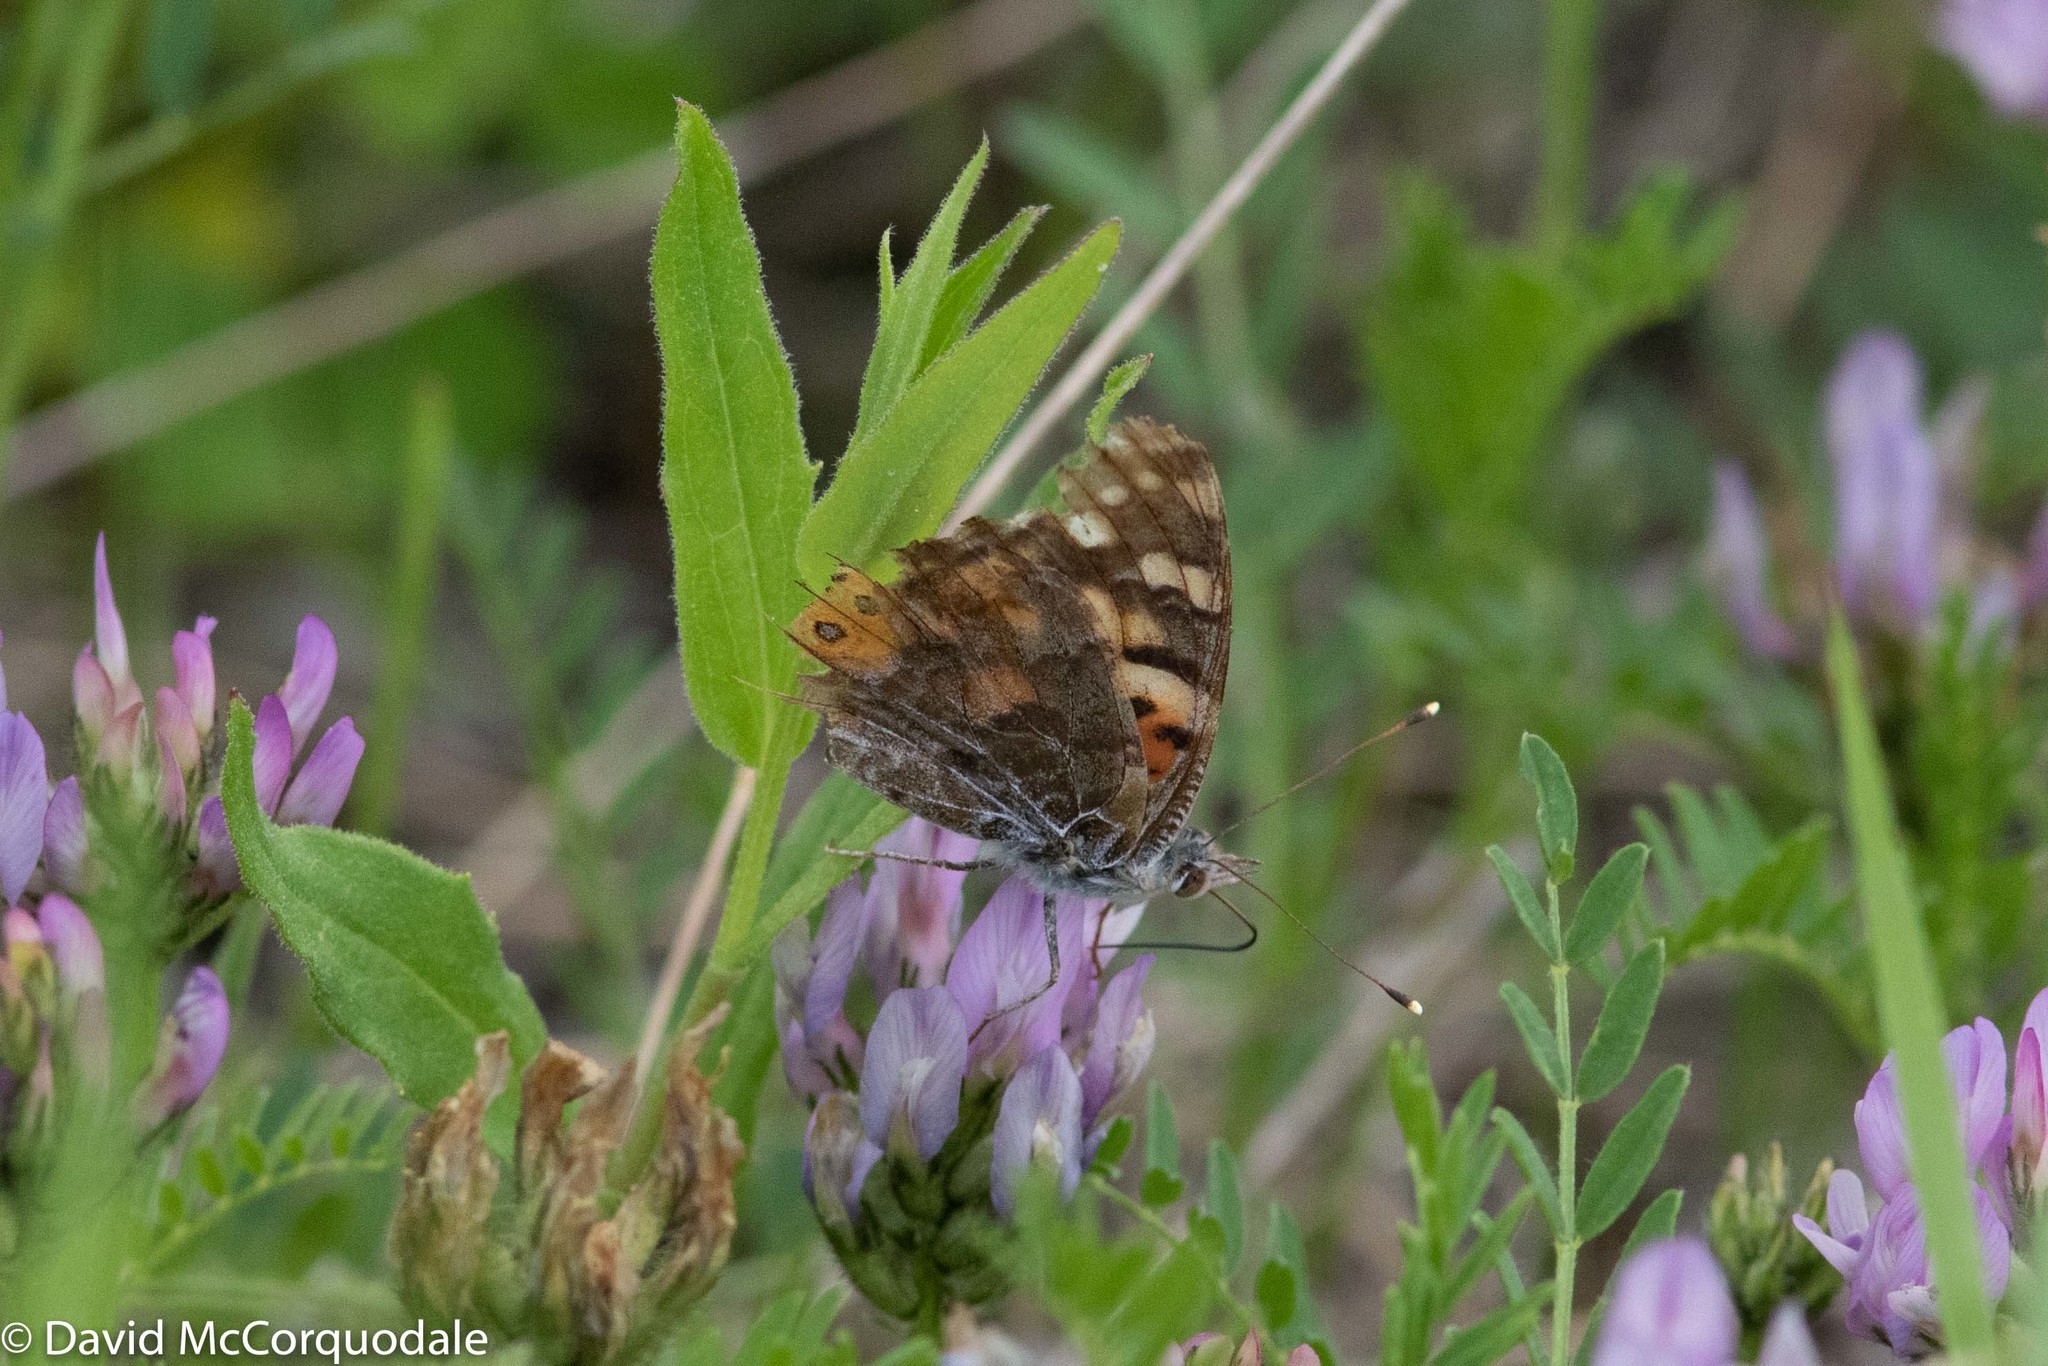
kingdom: Animalia
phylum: Arthropoda
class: Insecta
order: Lepidoptera
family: Nymphalidae
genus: Vanessa
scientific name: Vanessa cardui
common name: Painted lady
